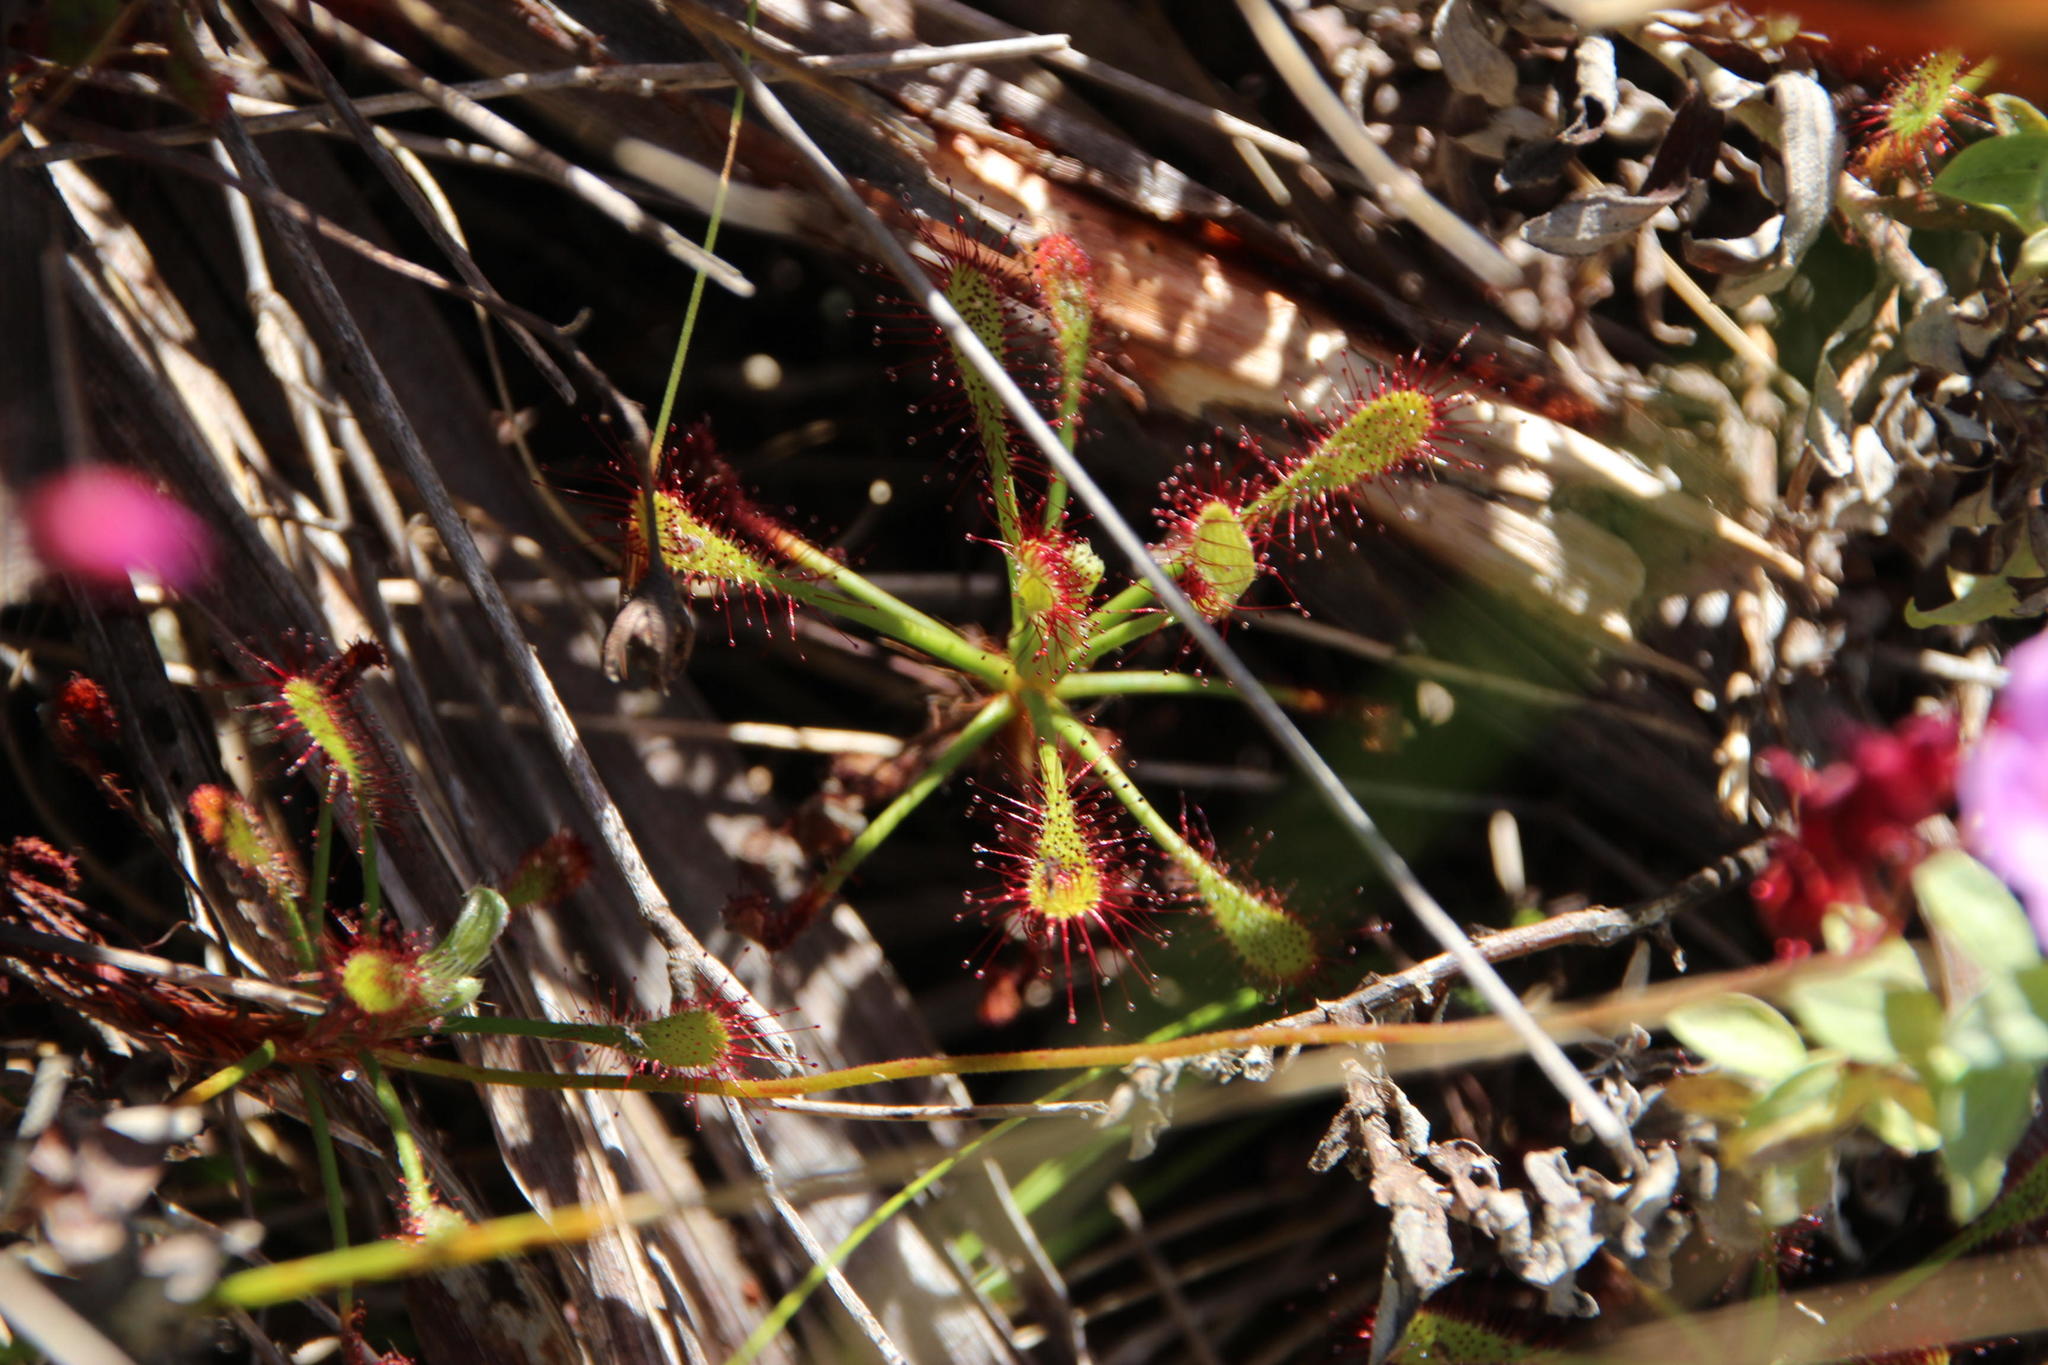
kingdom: Plantae
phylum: Tracheophyta
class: Magnoliopsida
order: Caryophyllales
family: Droseraceae
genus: Drosera
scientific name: Drosera glabripes
